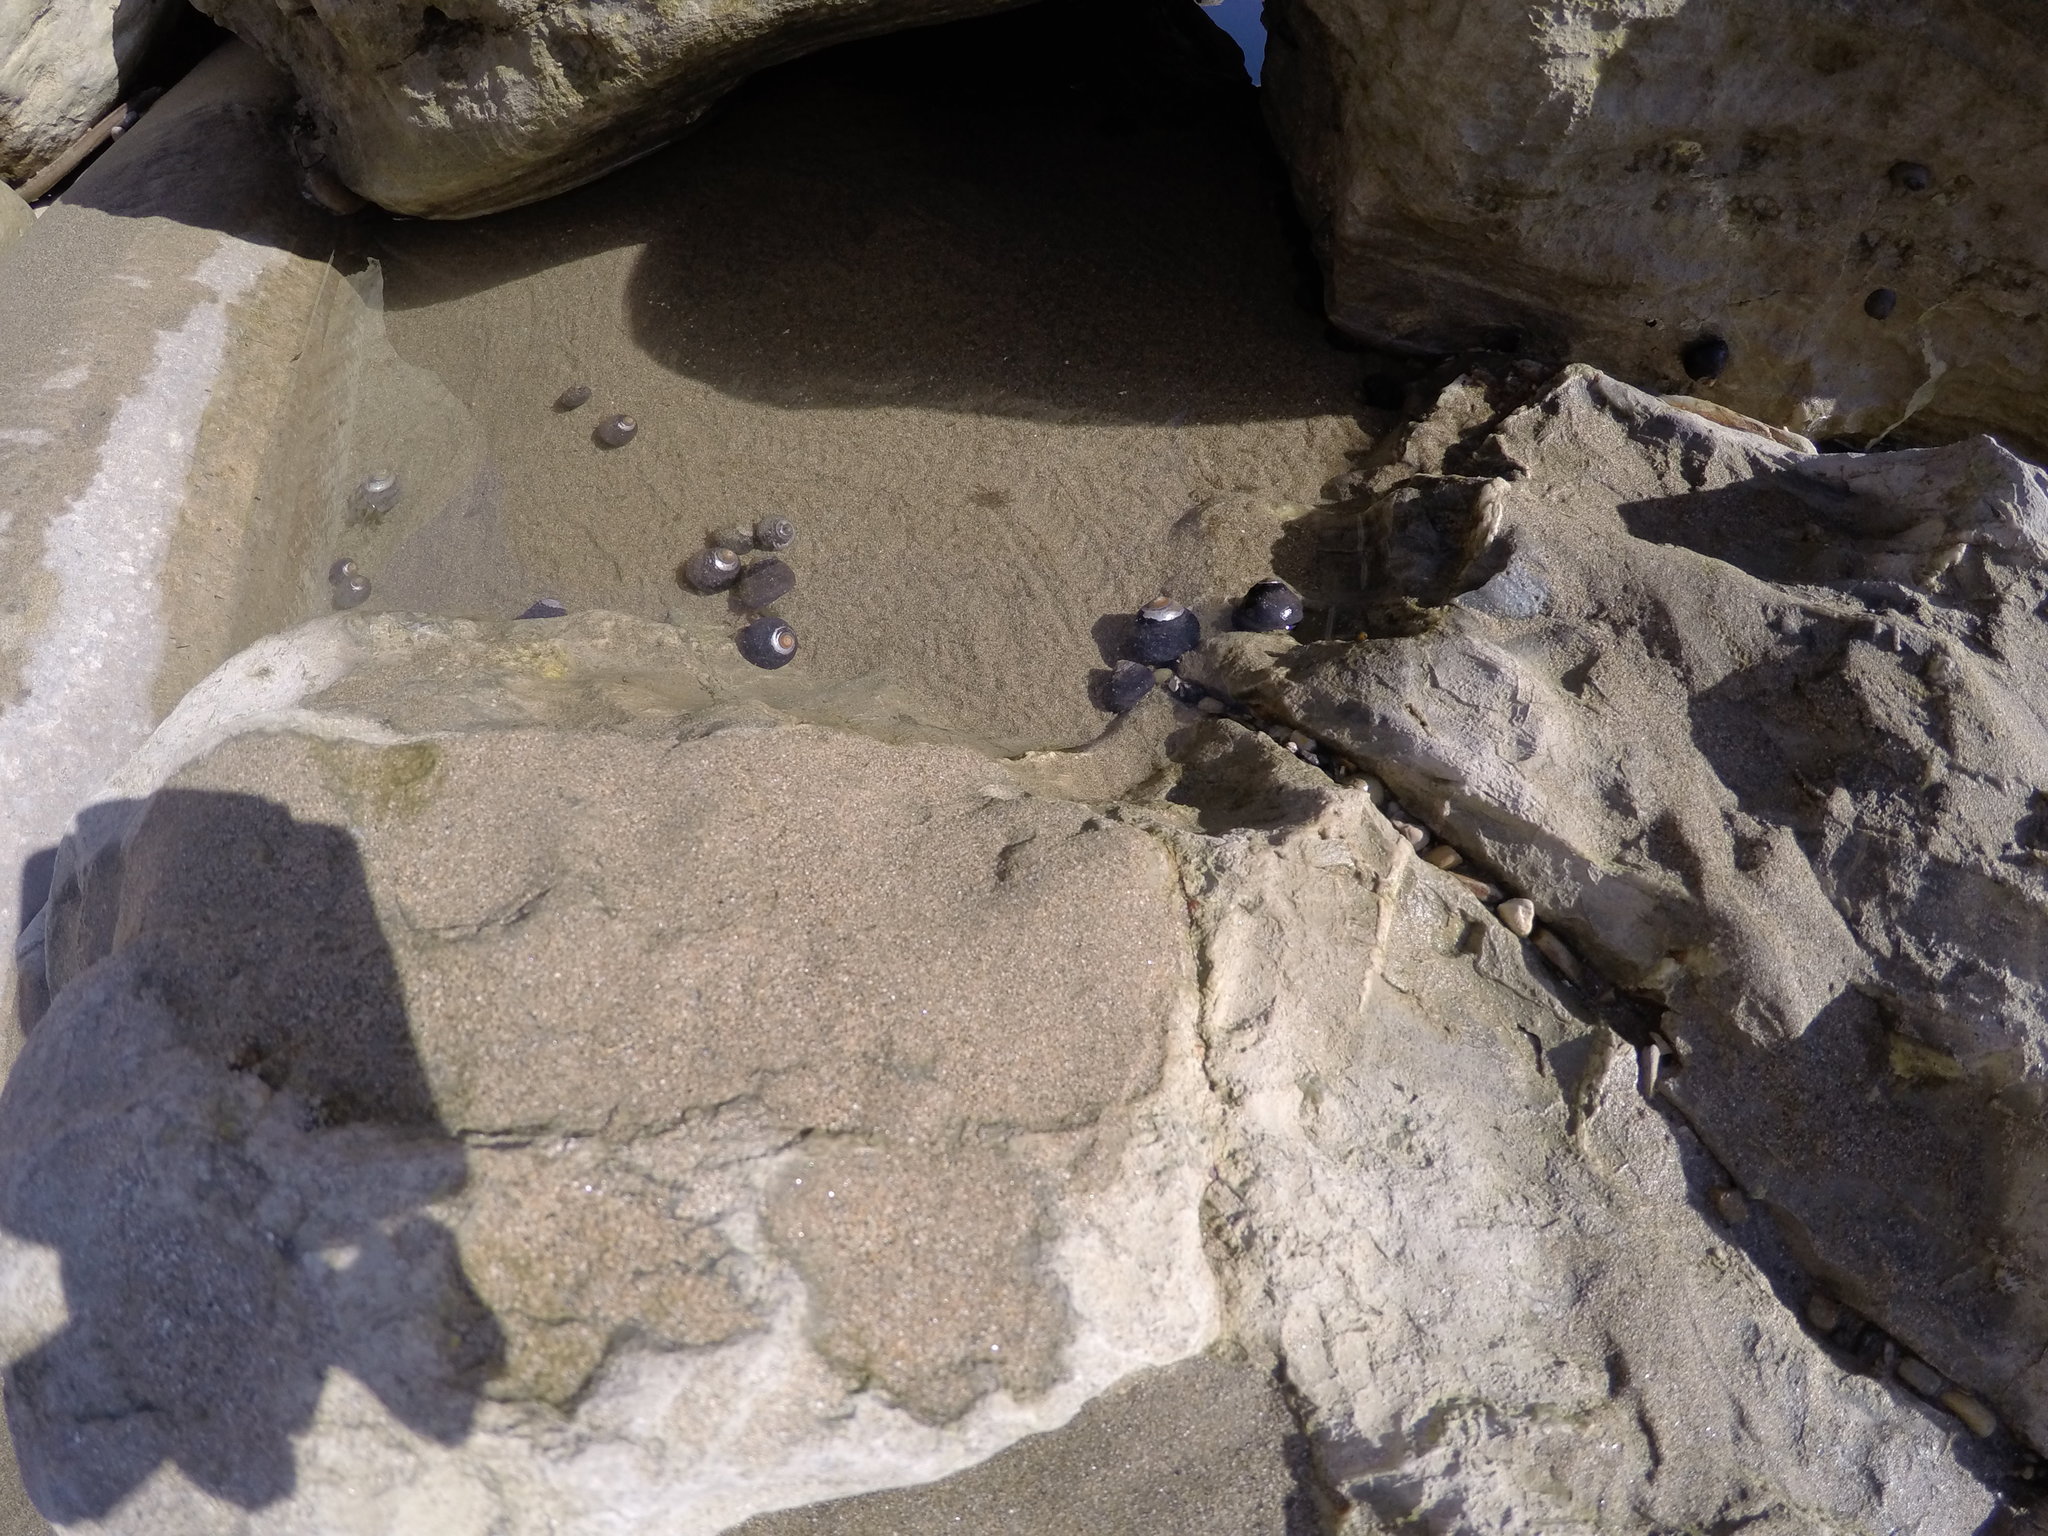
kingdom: Animalia
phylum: Mollusca
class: Gastropoda
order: Trochida
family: Tegulidae
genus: Tegula
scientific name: Tegula funebralis
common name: Black tegula
